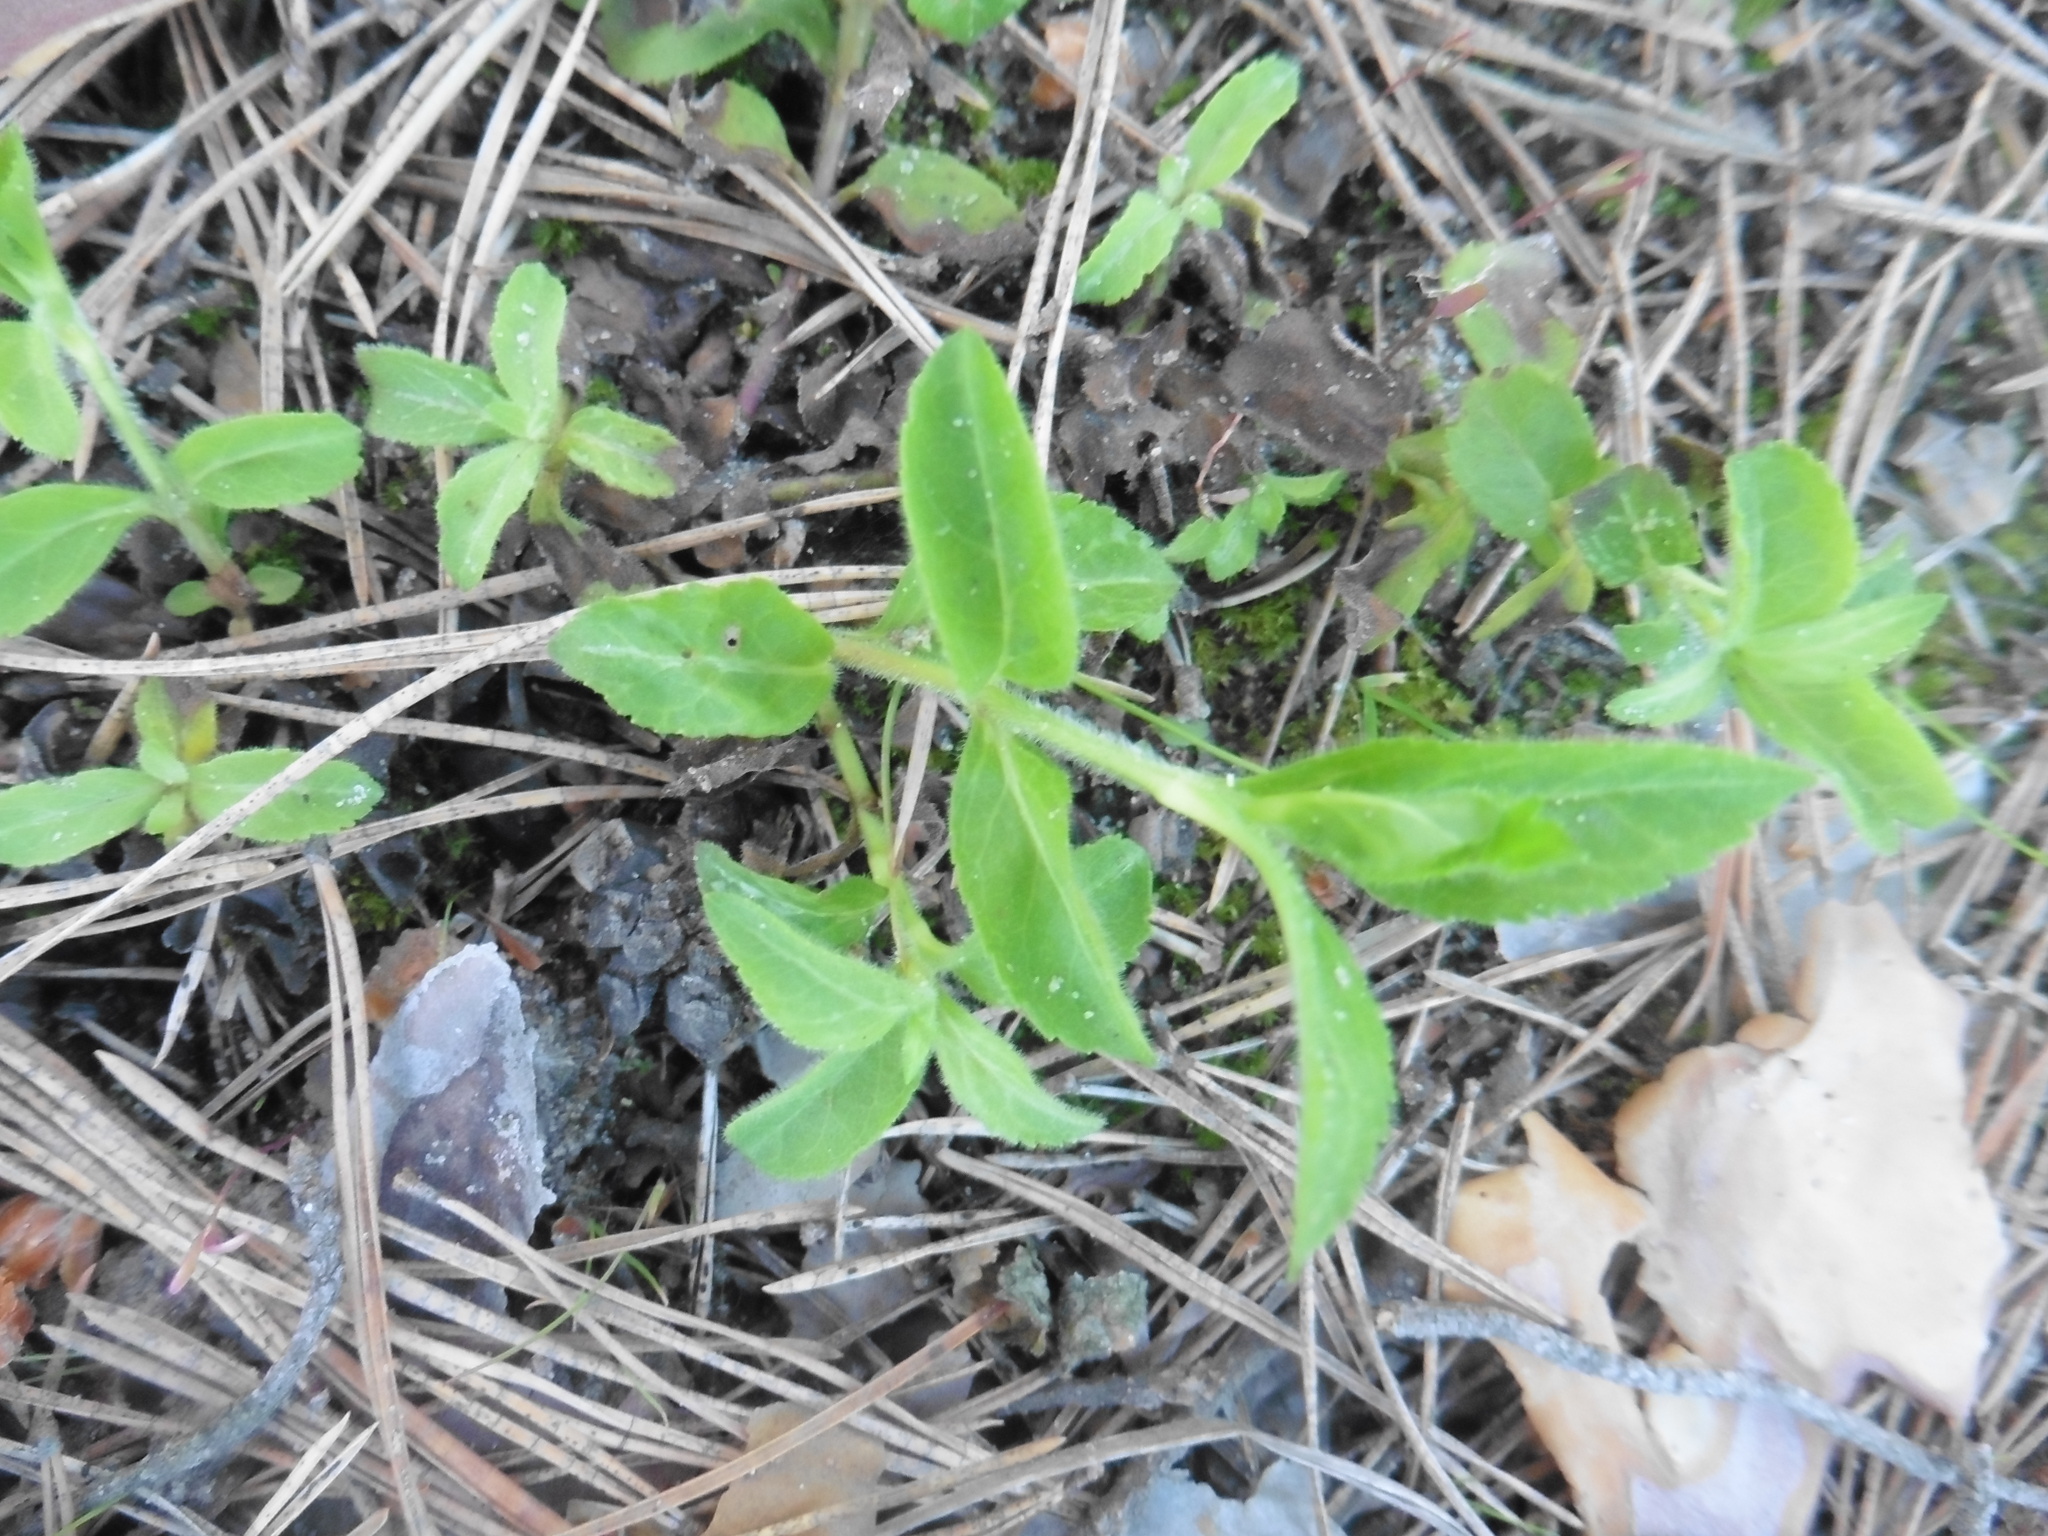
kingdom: Plantae
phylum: Tracheophyta
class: Magnoliopsida
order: Lamiales
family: Plantaginaceae
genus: Veronica
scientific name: Veronica officinalis
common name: Common speedwell
